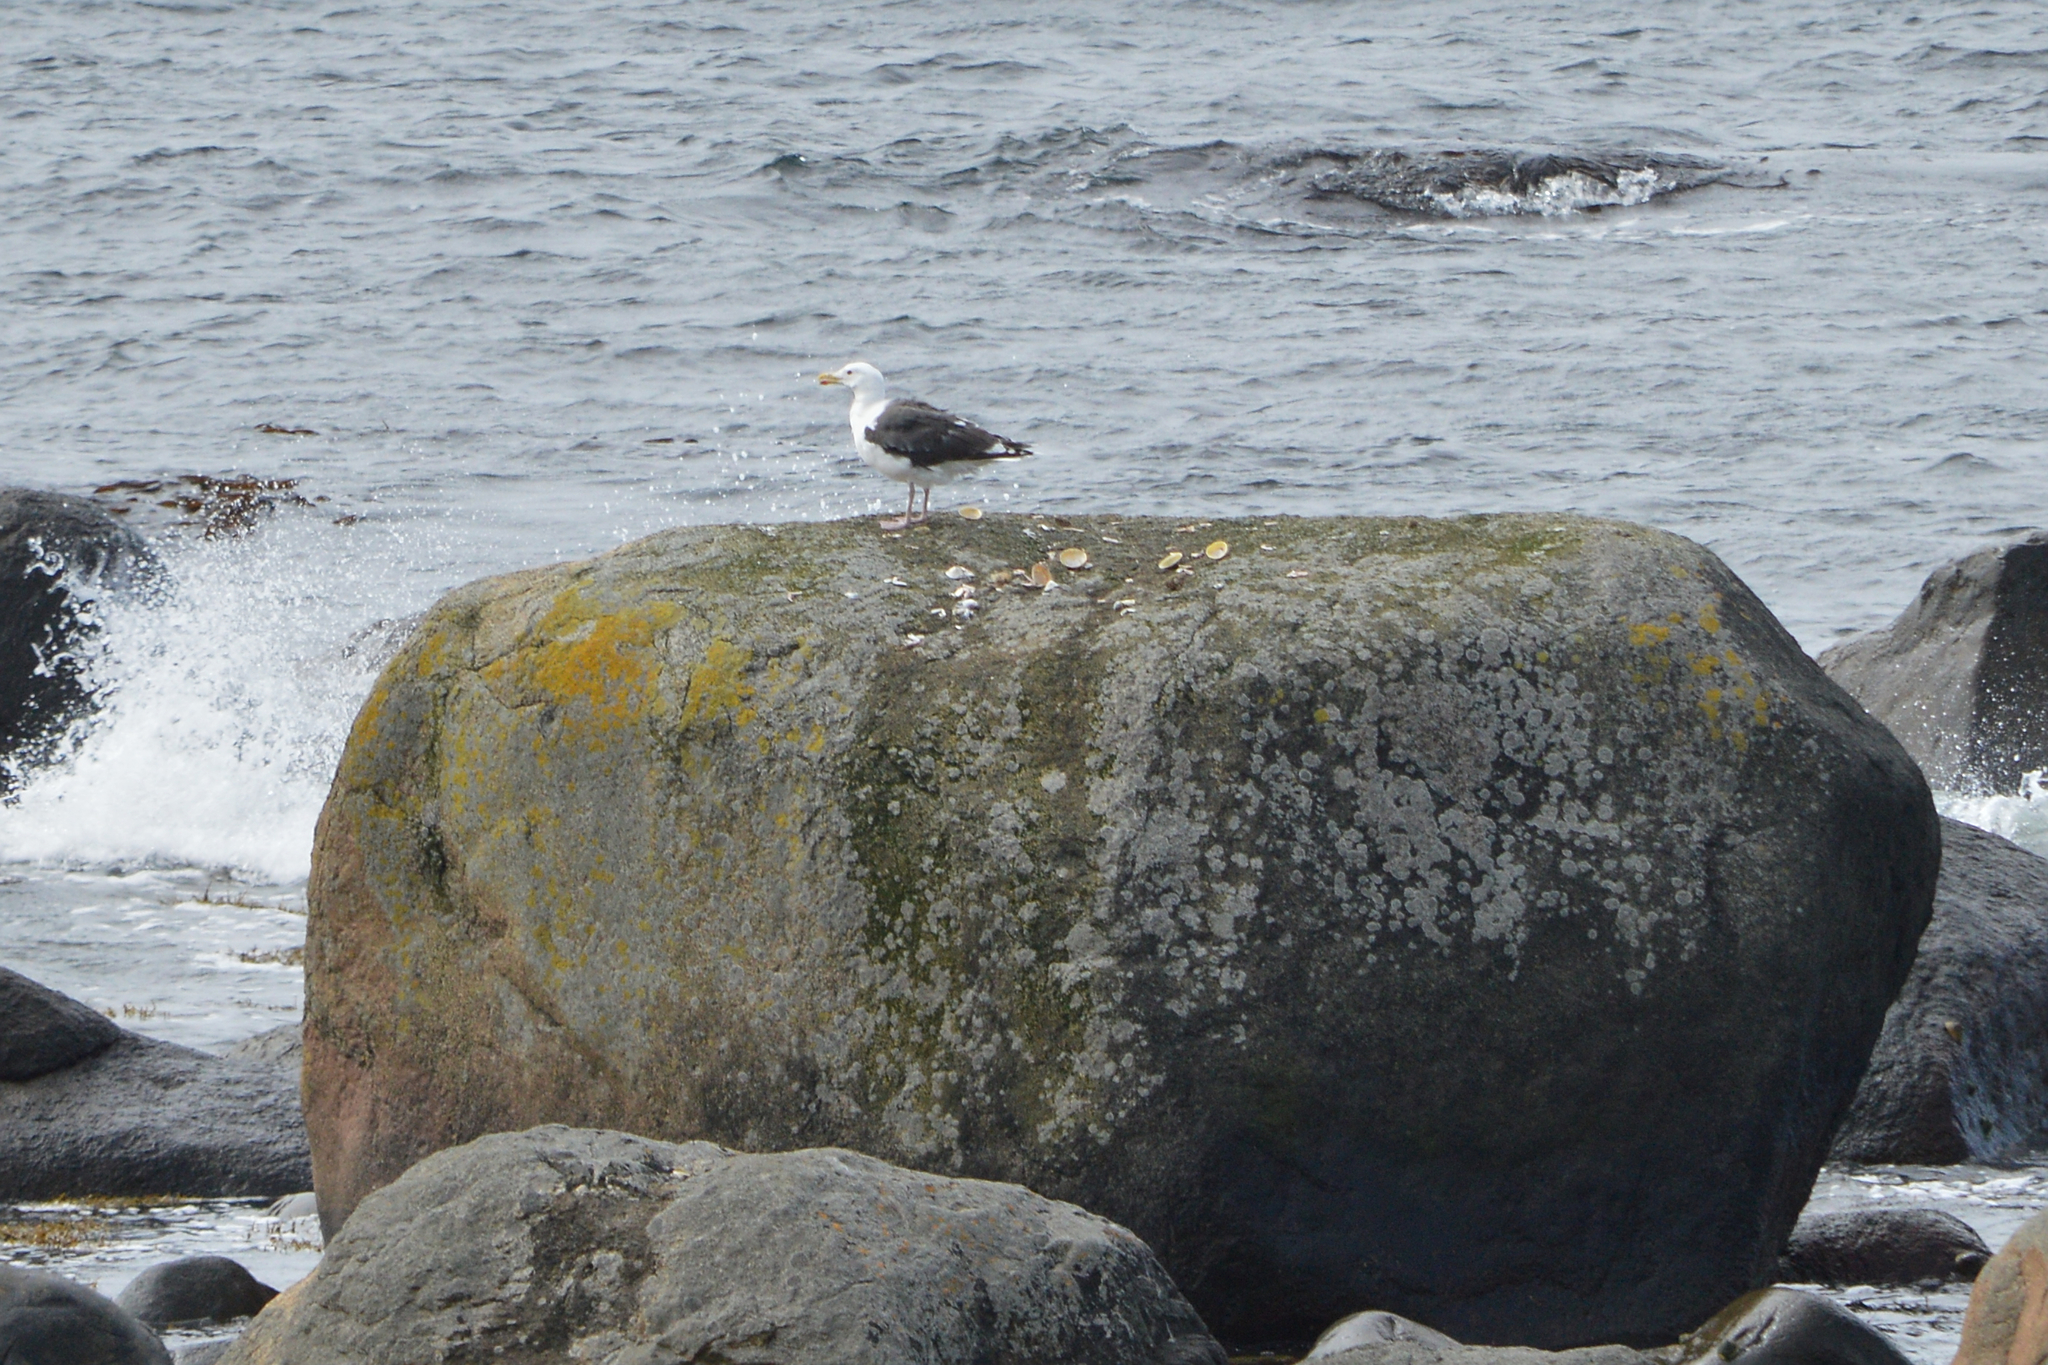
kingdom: Animalia
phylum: Chordata
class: Aves
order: Charadriiformes
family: Laridae
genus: Larus
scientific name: Larus marinus
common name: Great black-backed gull
